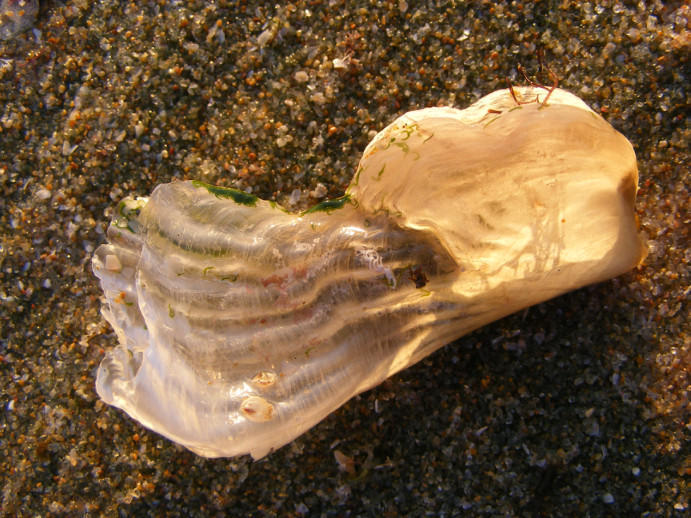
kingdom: Animalia
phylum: Mollusca
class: Bivalvia
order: Ostreida
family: Pinnidae
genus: Streptopinna
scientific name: Streptopinna saccata
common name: Baggy pen shell
